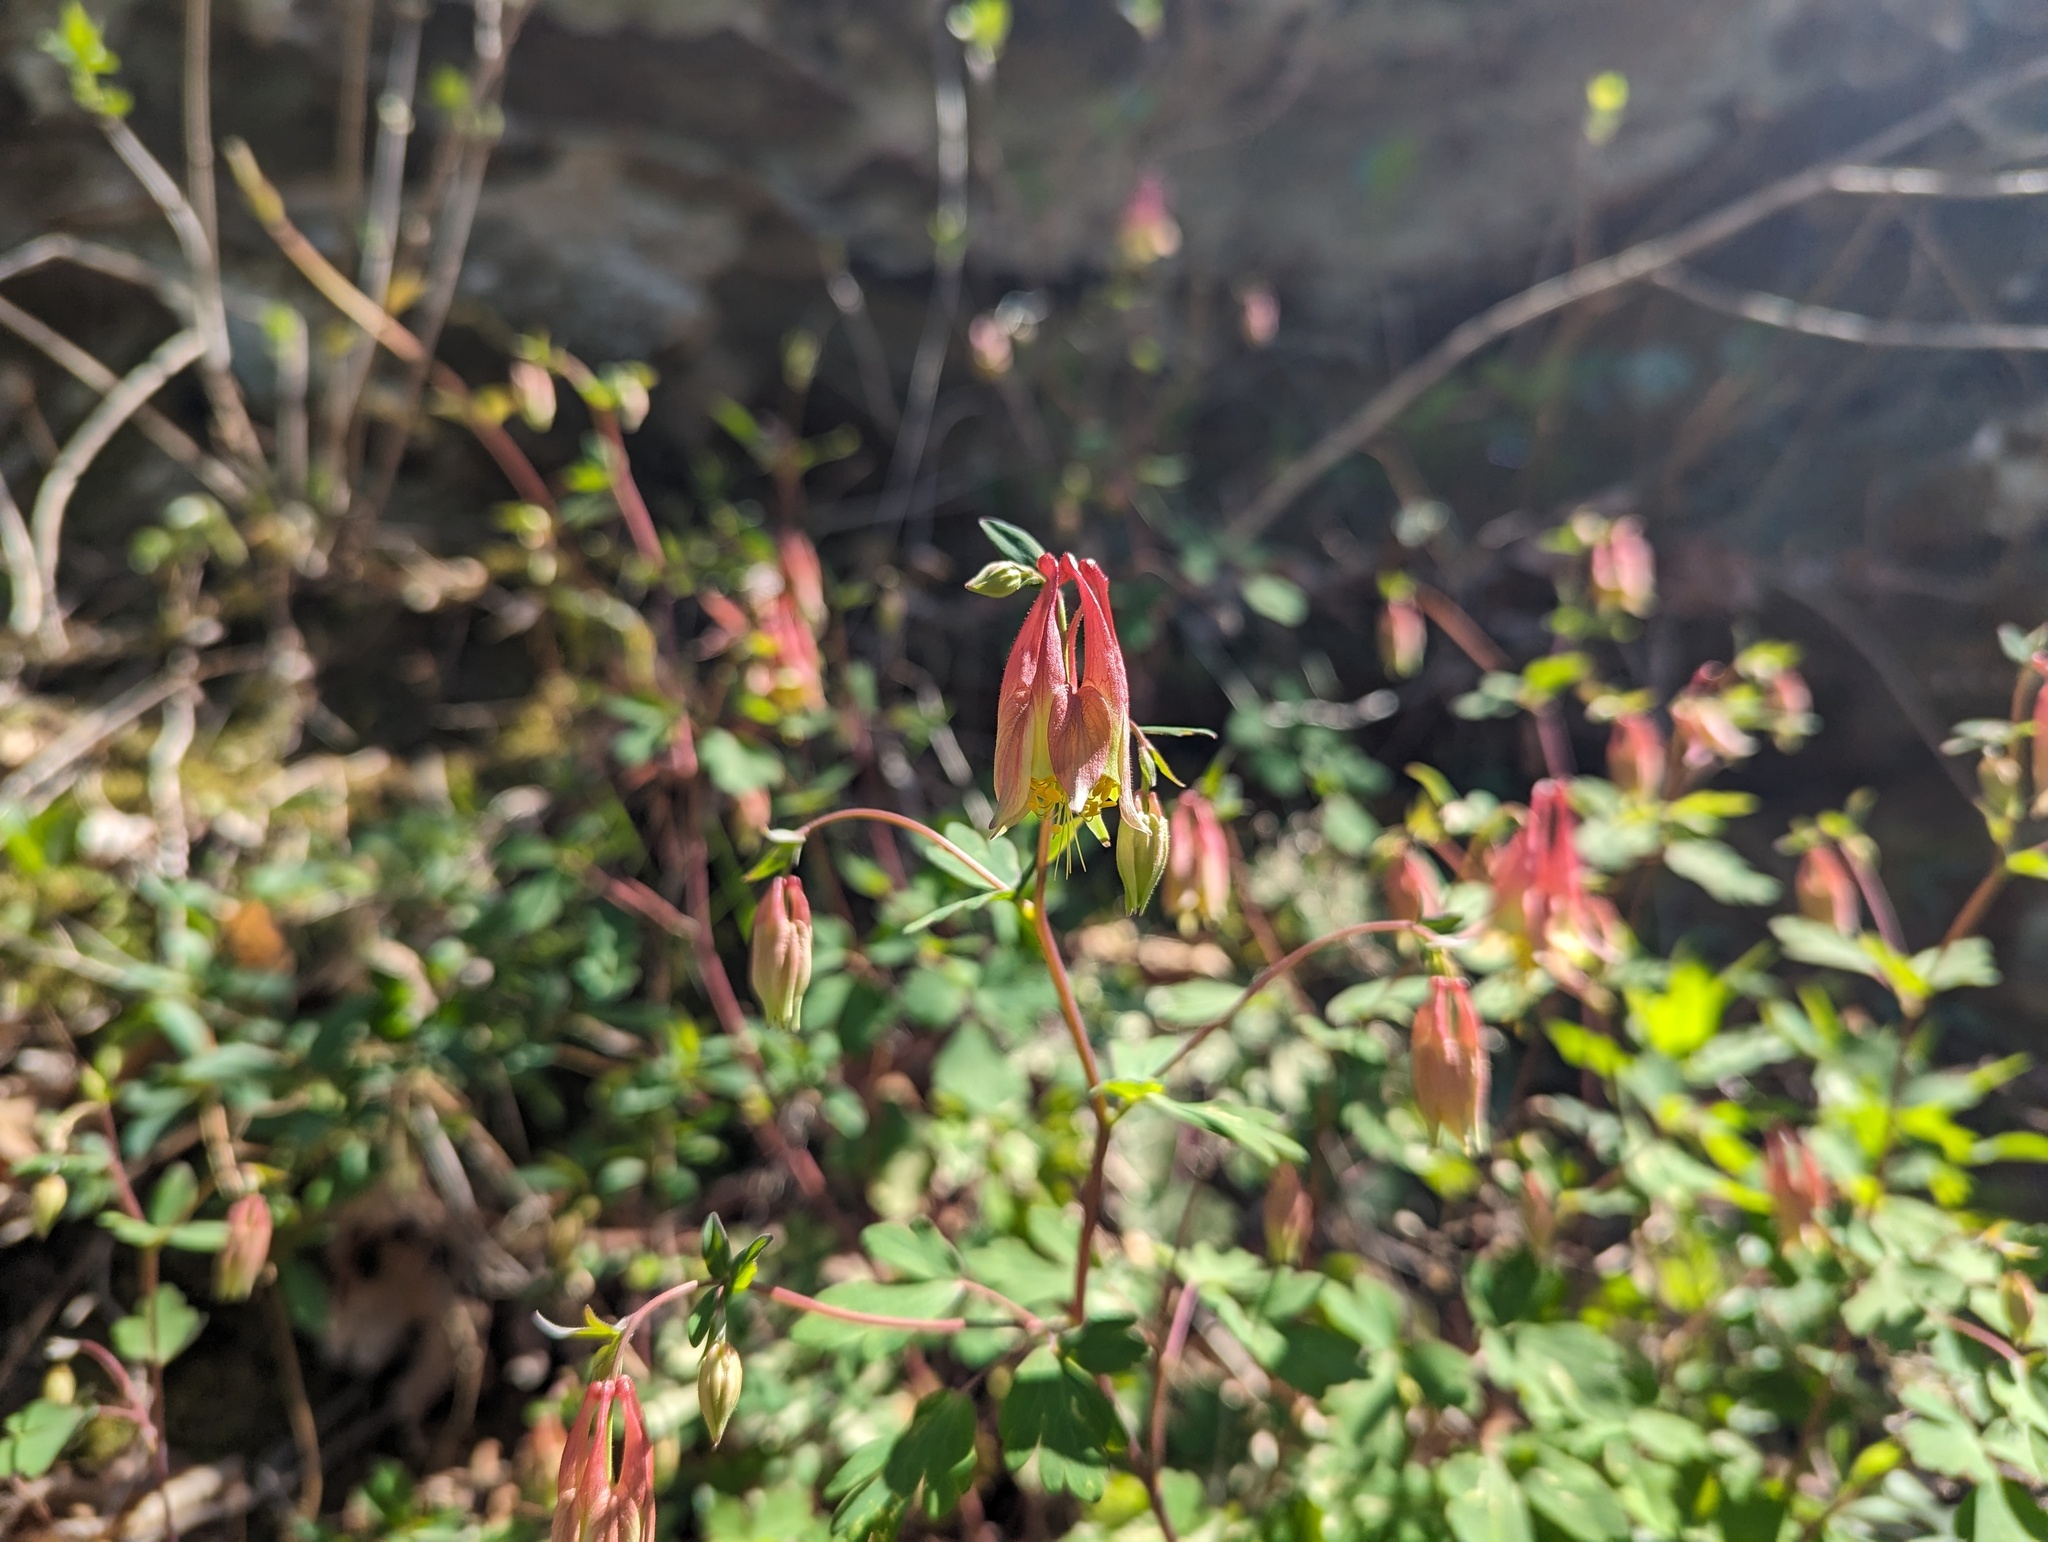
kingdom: Plantae
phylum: Tracheophyta
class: Magnoliopsida
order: Ranunculales
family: Ranunculaceae
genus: Aquilegia
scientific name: Aquilegia canadensis
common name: American columbine
